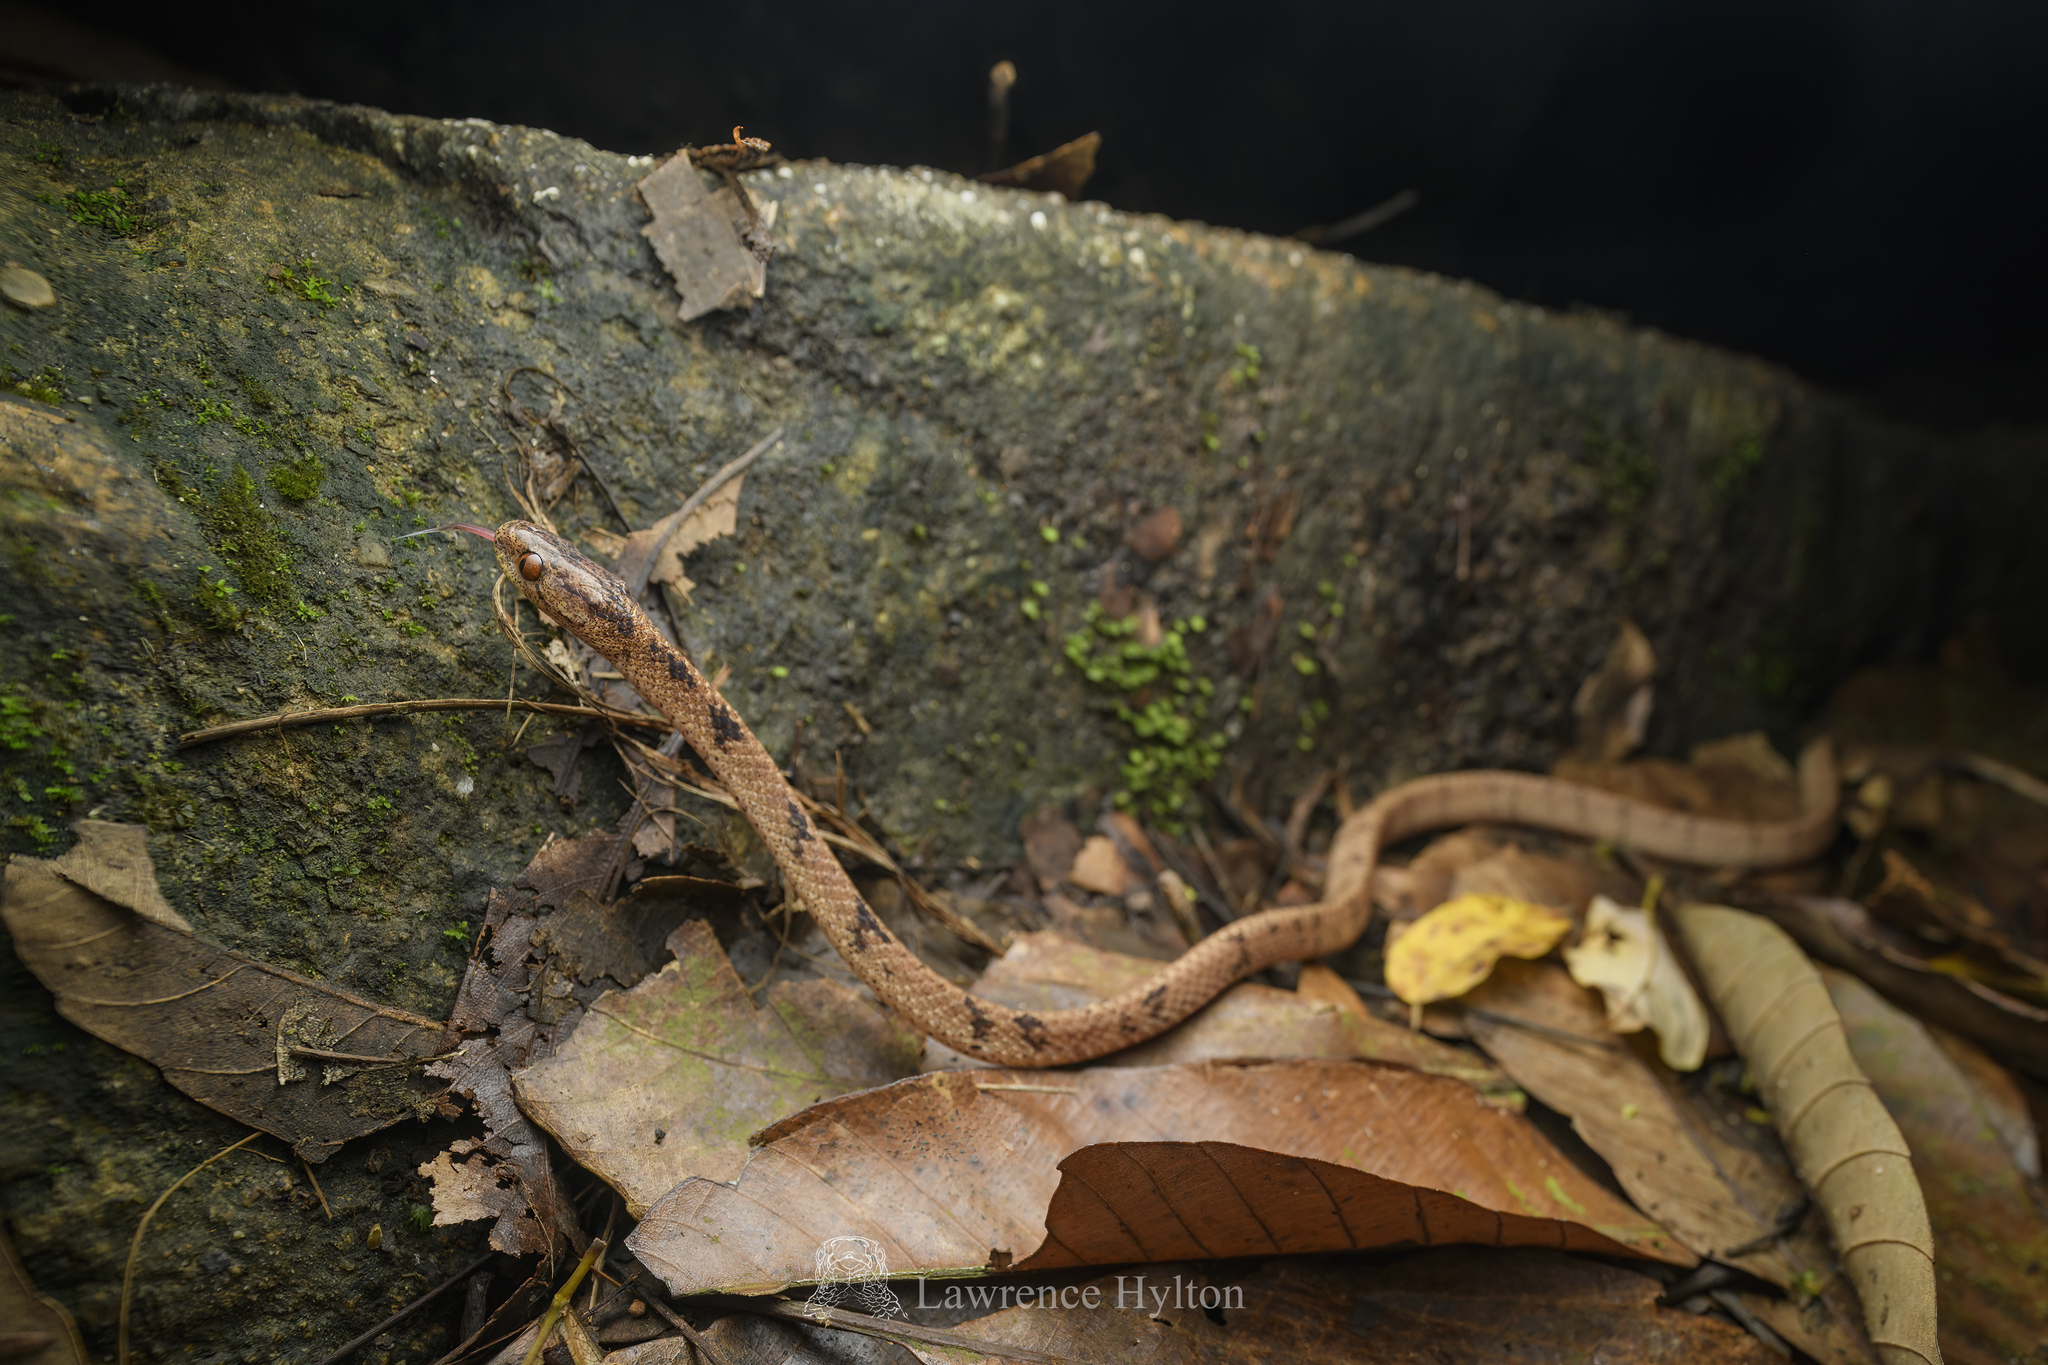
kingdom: Animalia
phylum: Chordata
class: Squamata
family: Pareidae
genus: Pareas
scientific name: Pareas chinensis
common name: Chinese slug snake
